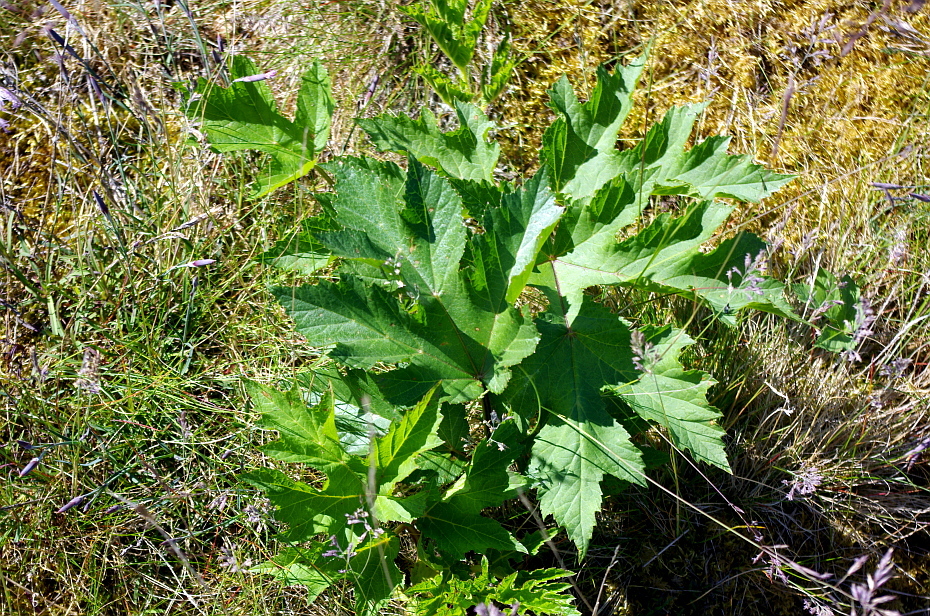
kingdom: Plantae
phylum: Tracheophyta
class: Magnoliopsida
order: Apiales
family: Apiaceae
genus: Heracleum
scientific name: Heracleum sphondylium
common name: Hogweed
